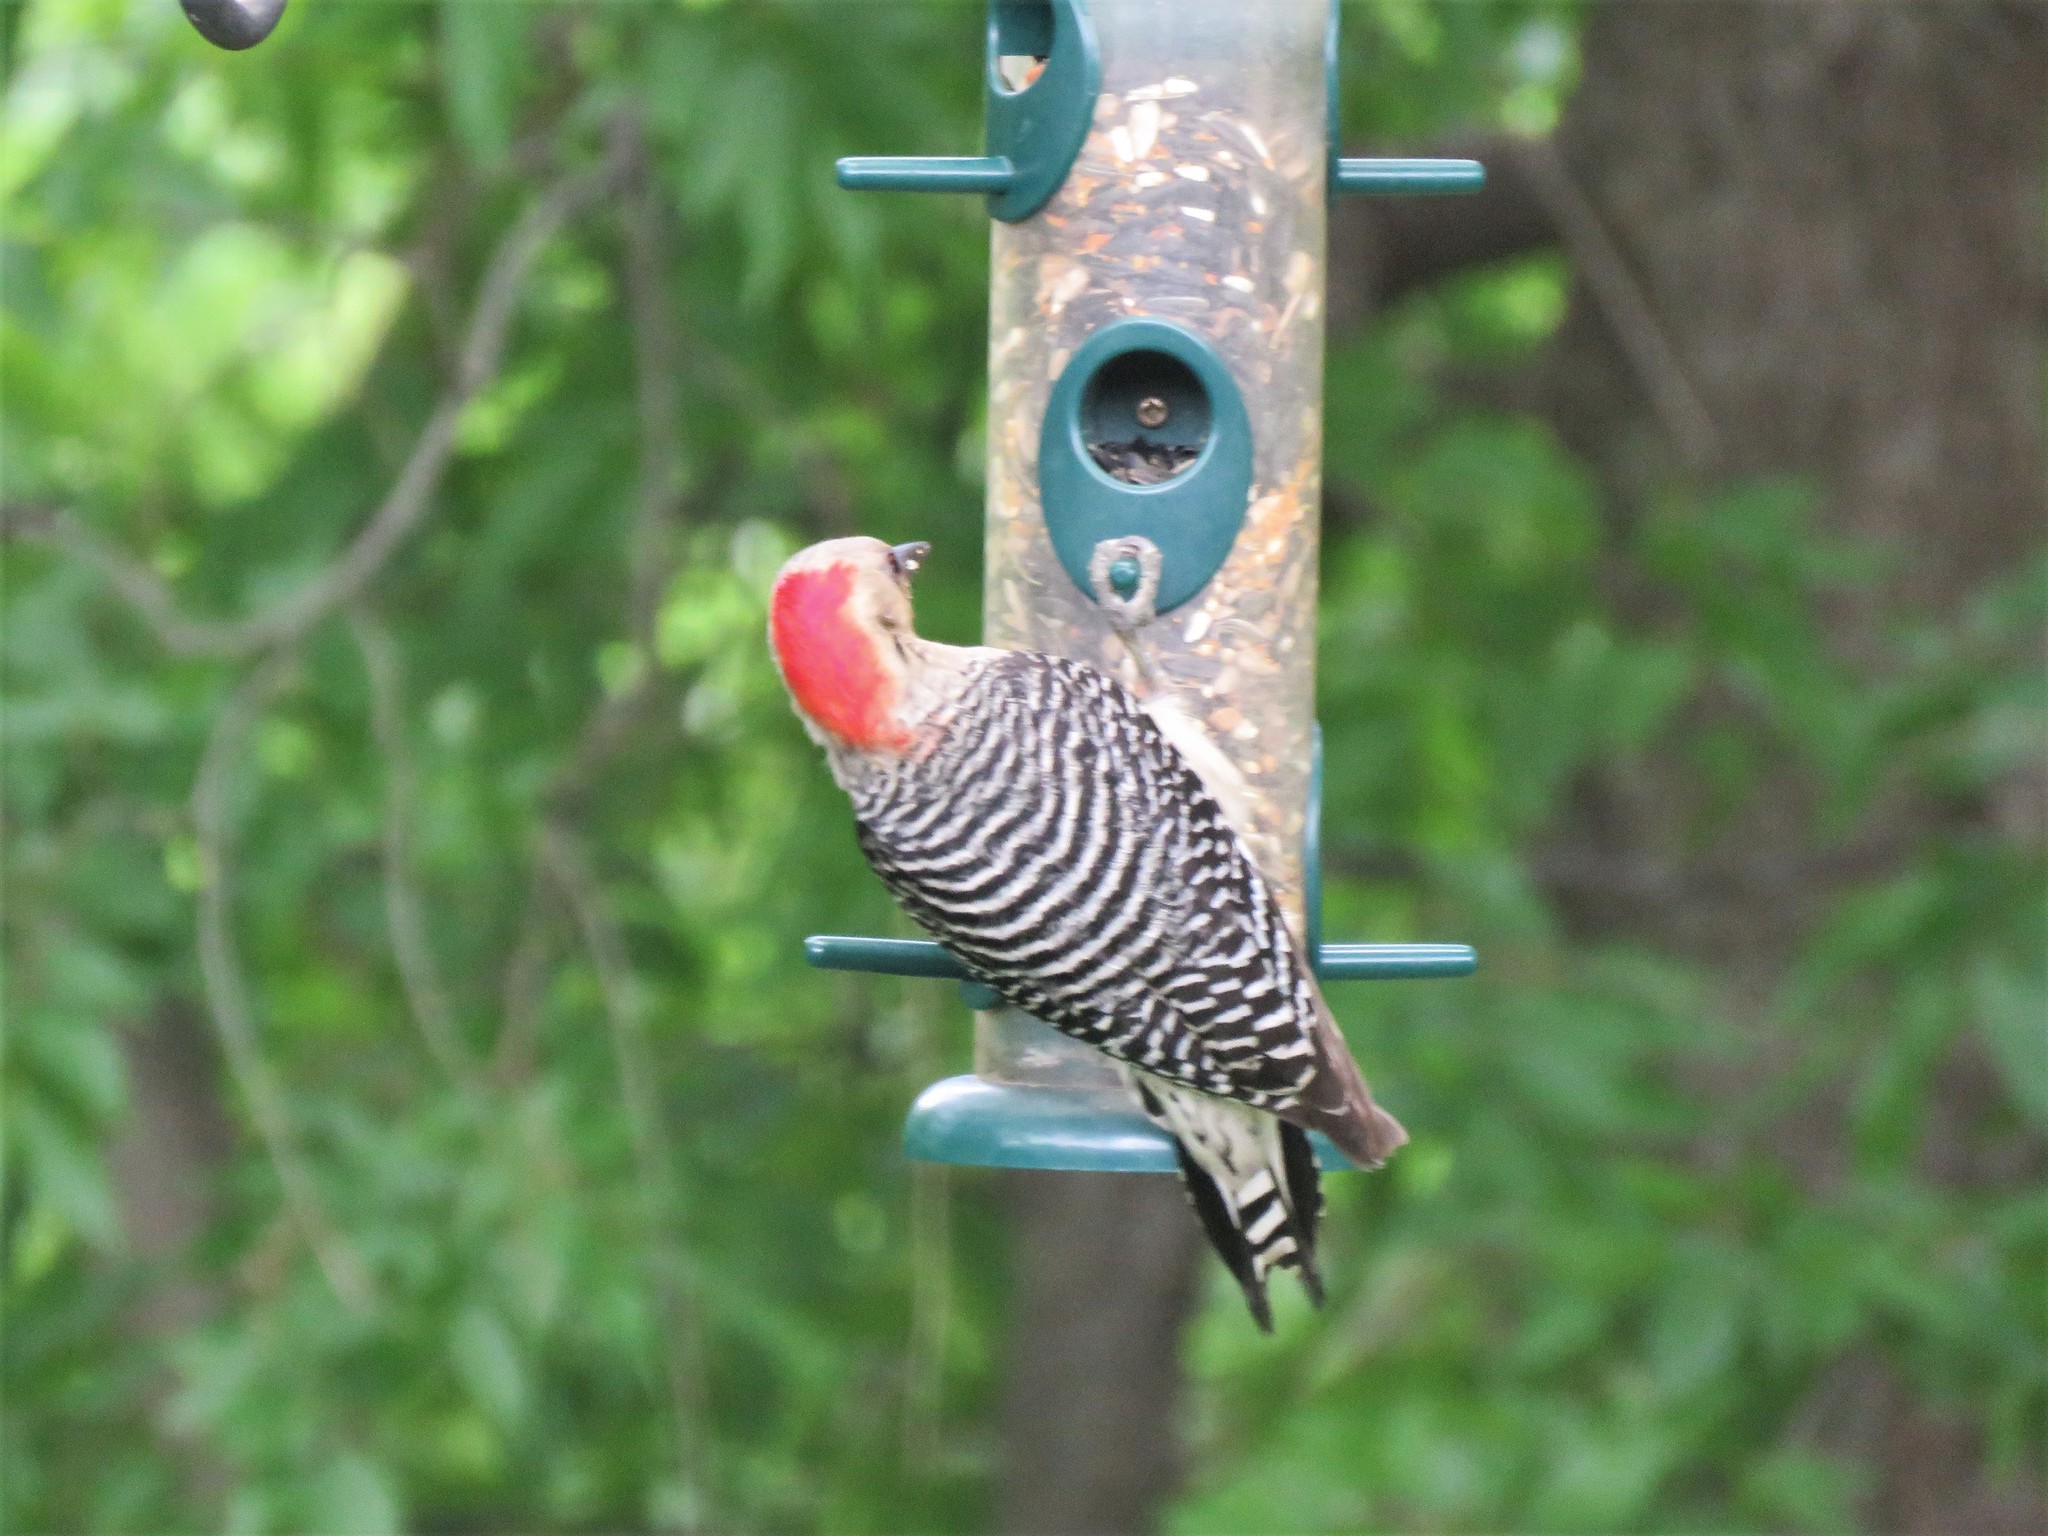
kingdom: Animalia
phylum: Chordata
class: Aves
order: Piciformes
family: Picidae
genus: Melanerpes
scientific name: Melanerpes carolinus
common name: Red-bellied woodpecker
